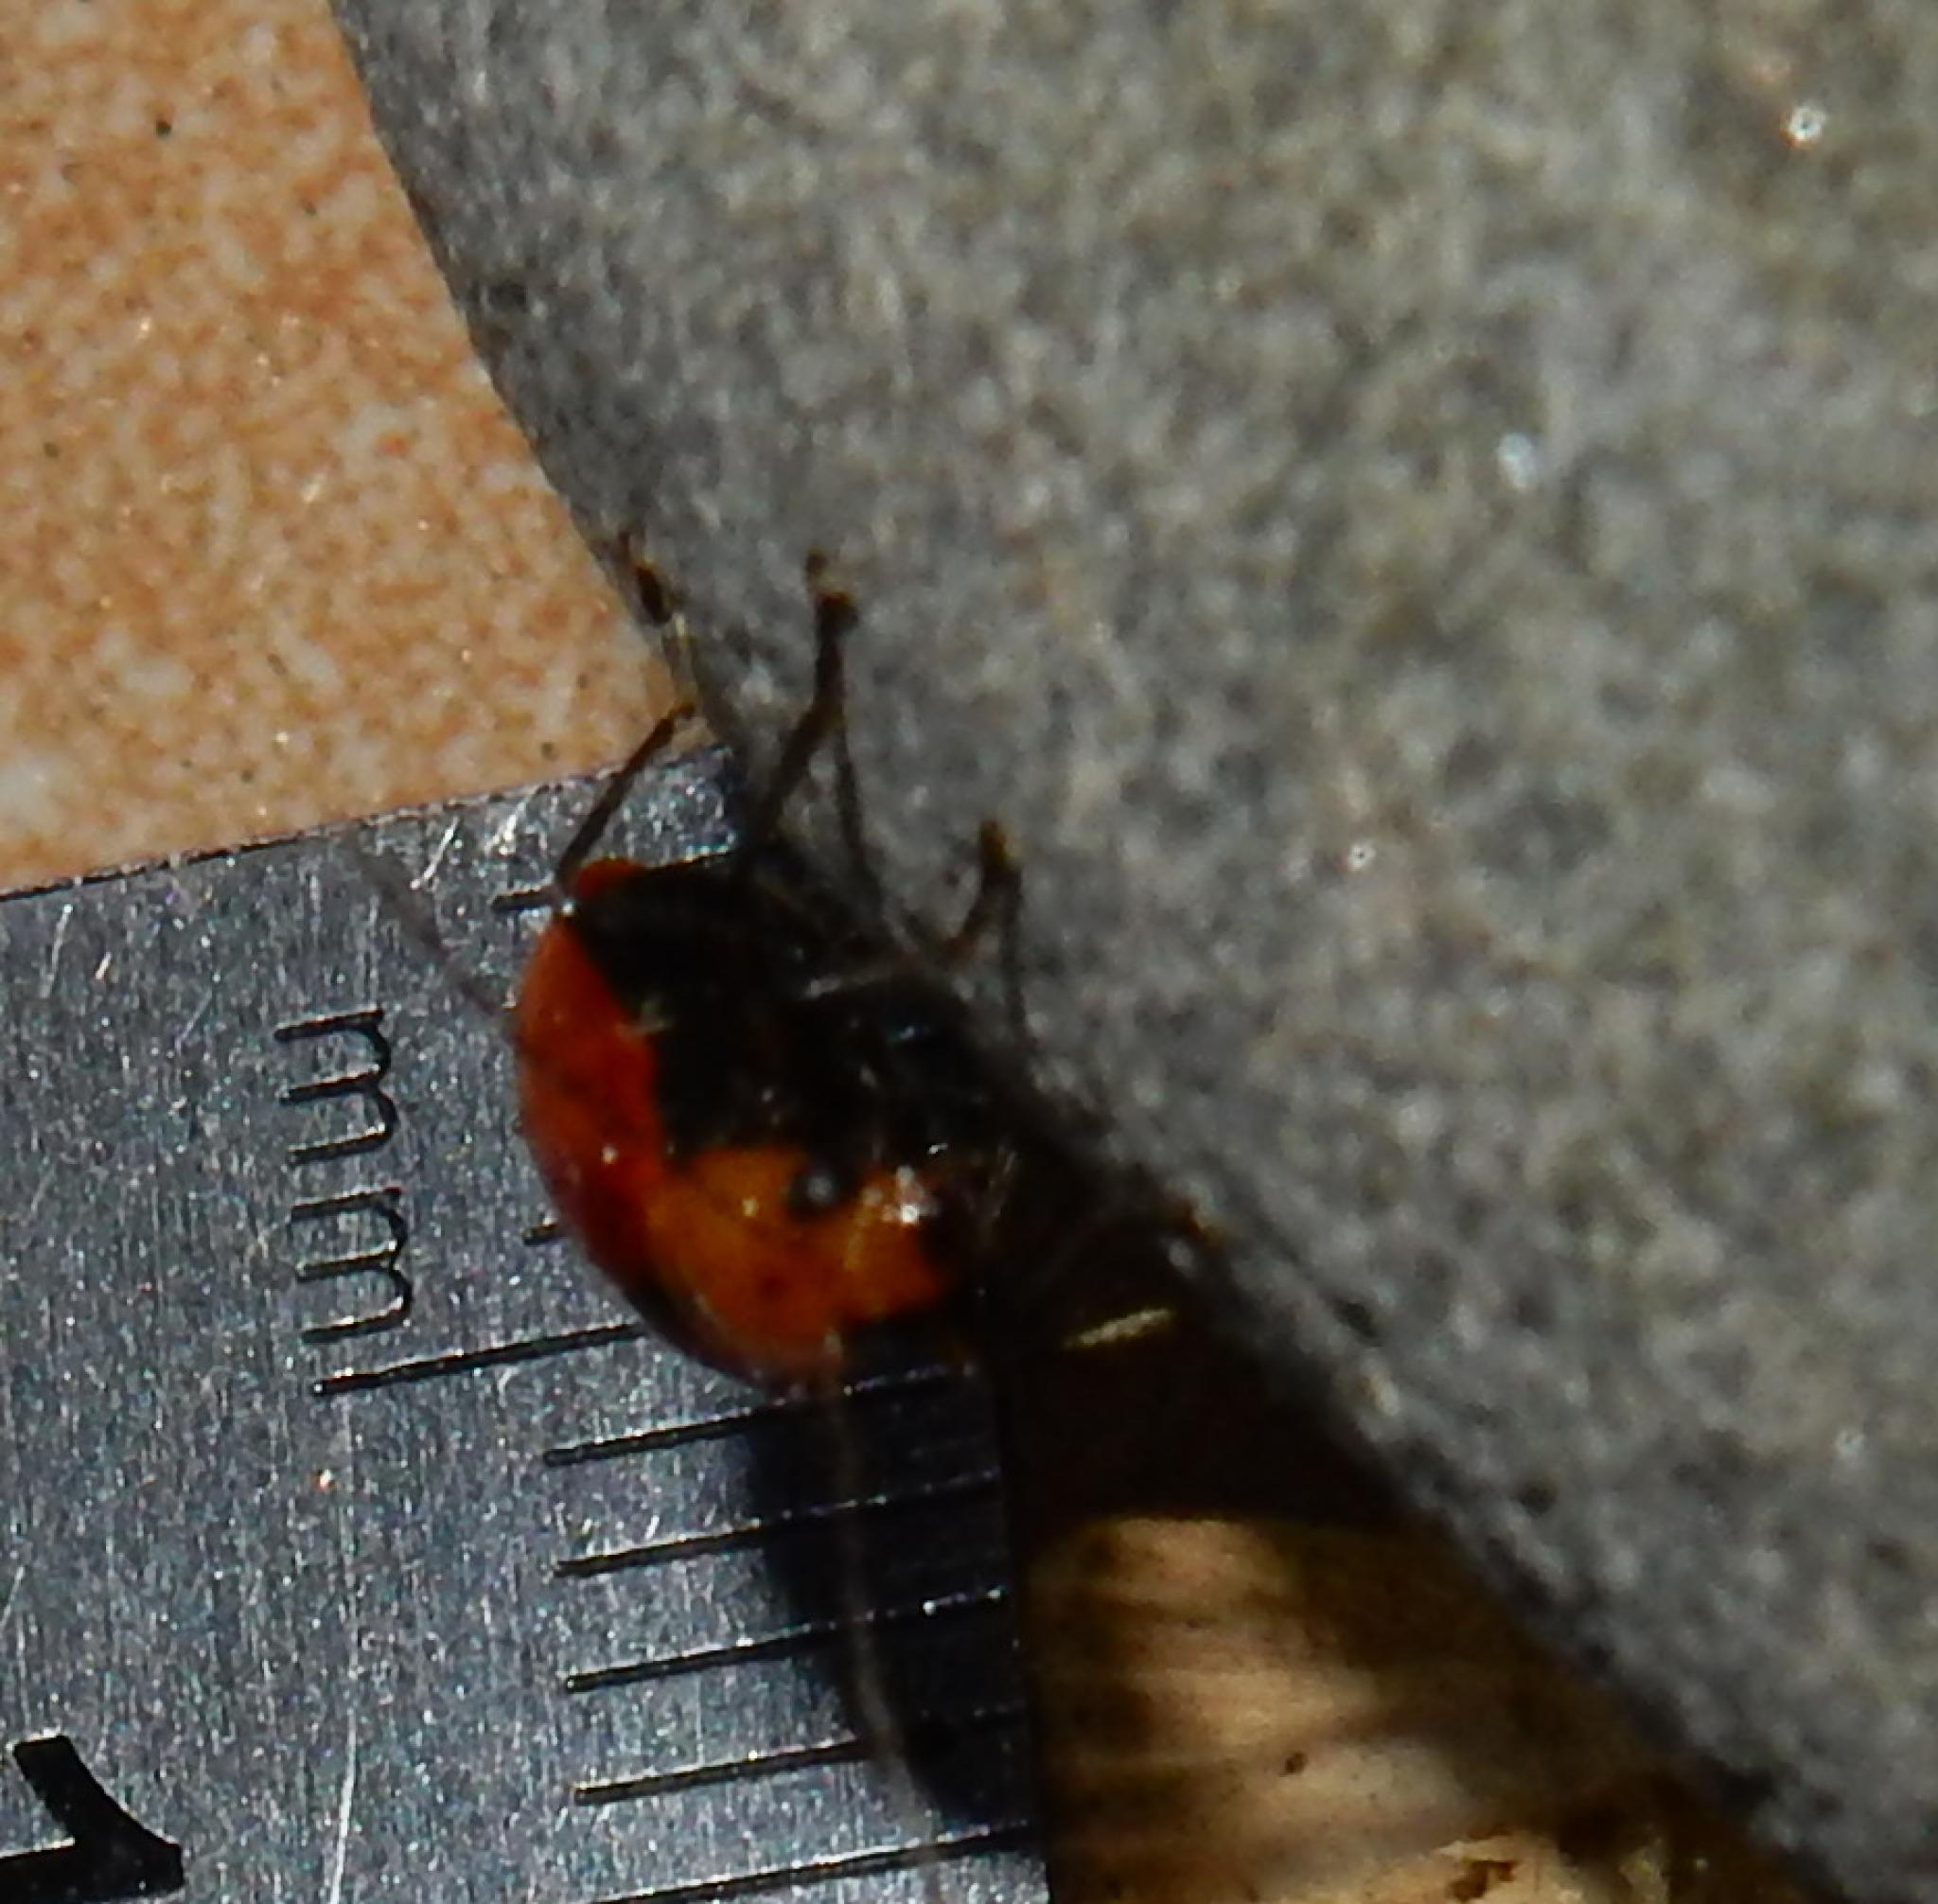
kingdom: Animalia
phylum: Arthropoda
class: Insecta
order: Coleoptera
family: Chrysomelidae
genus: Leptaulaca
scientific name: Leptaulaca
